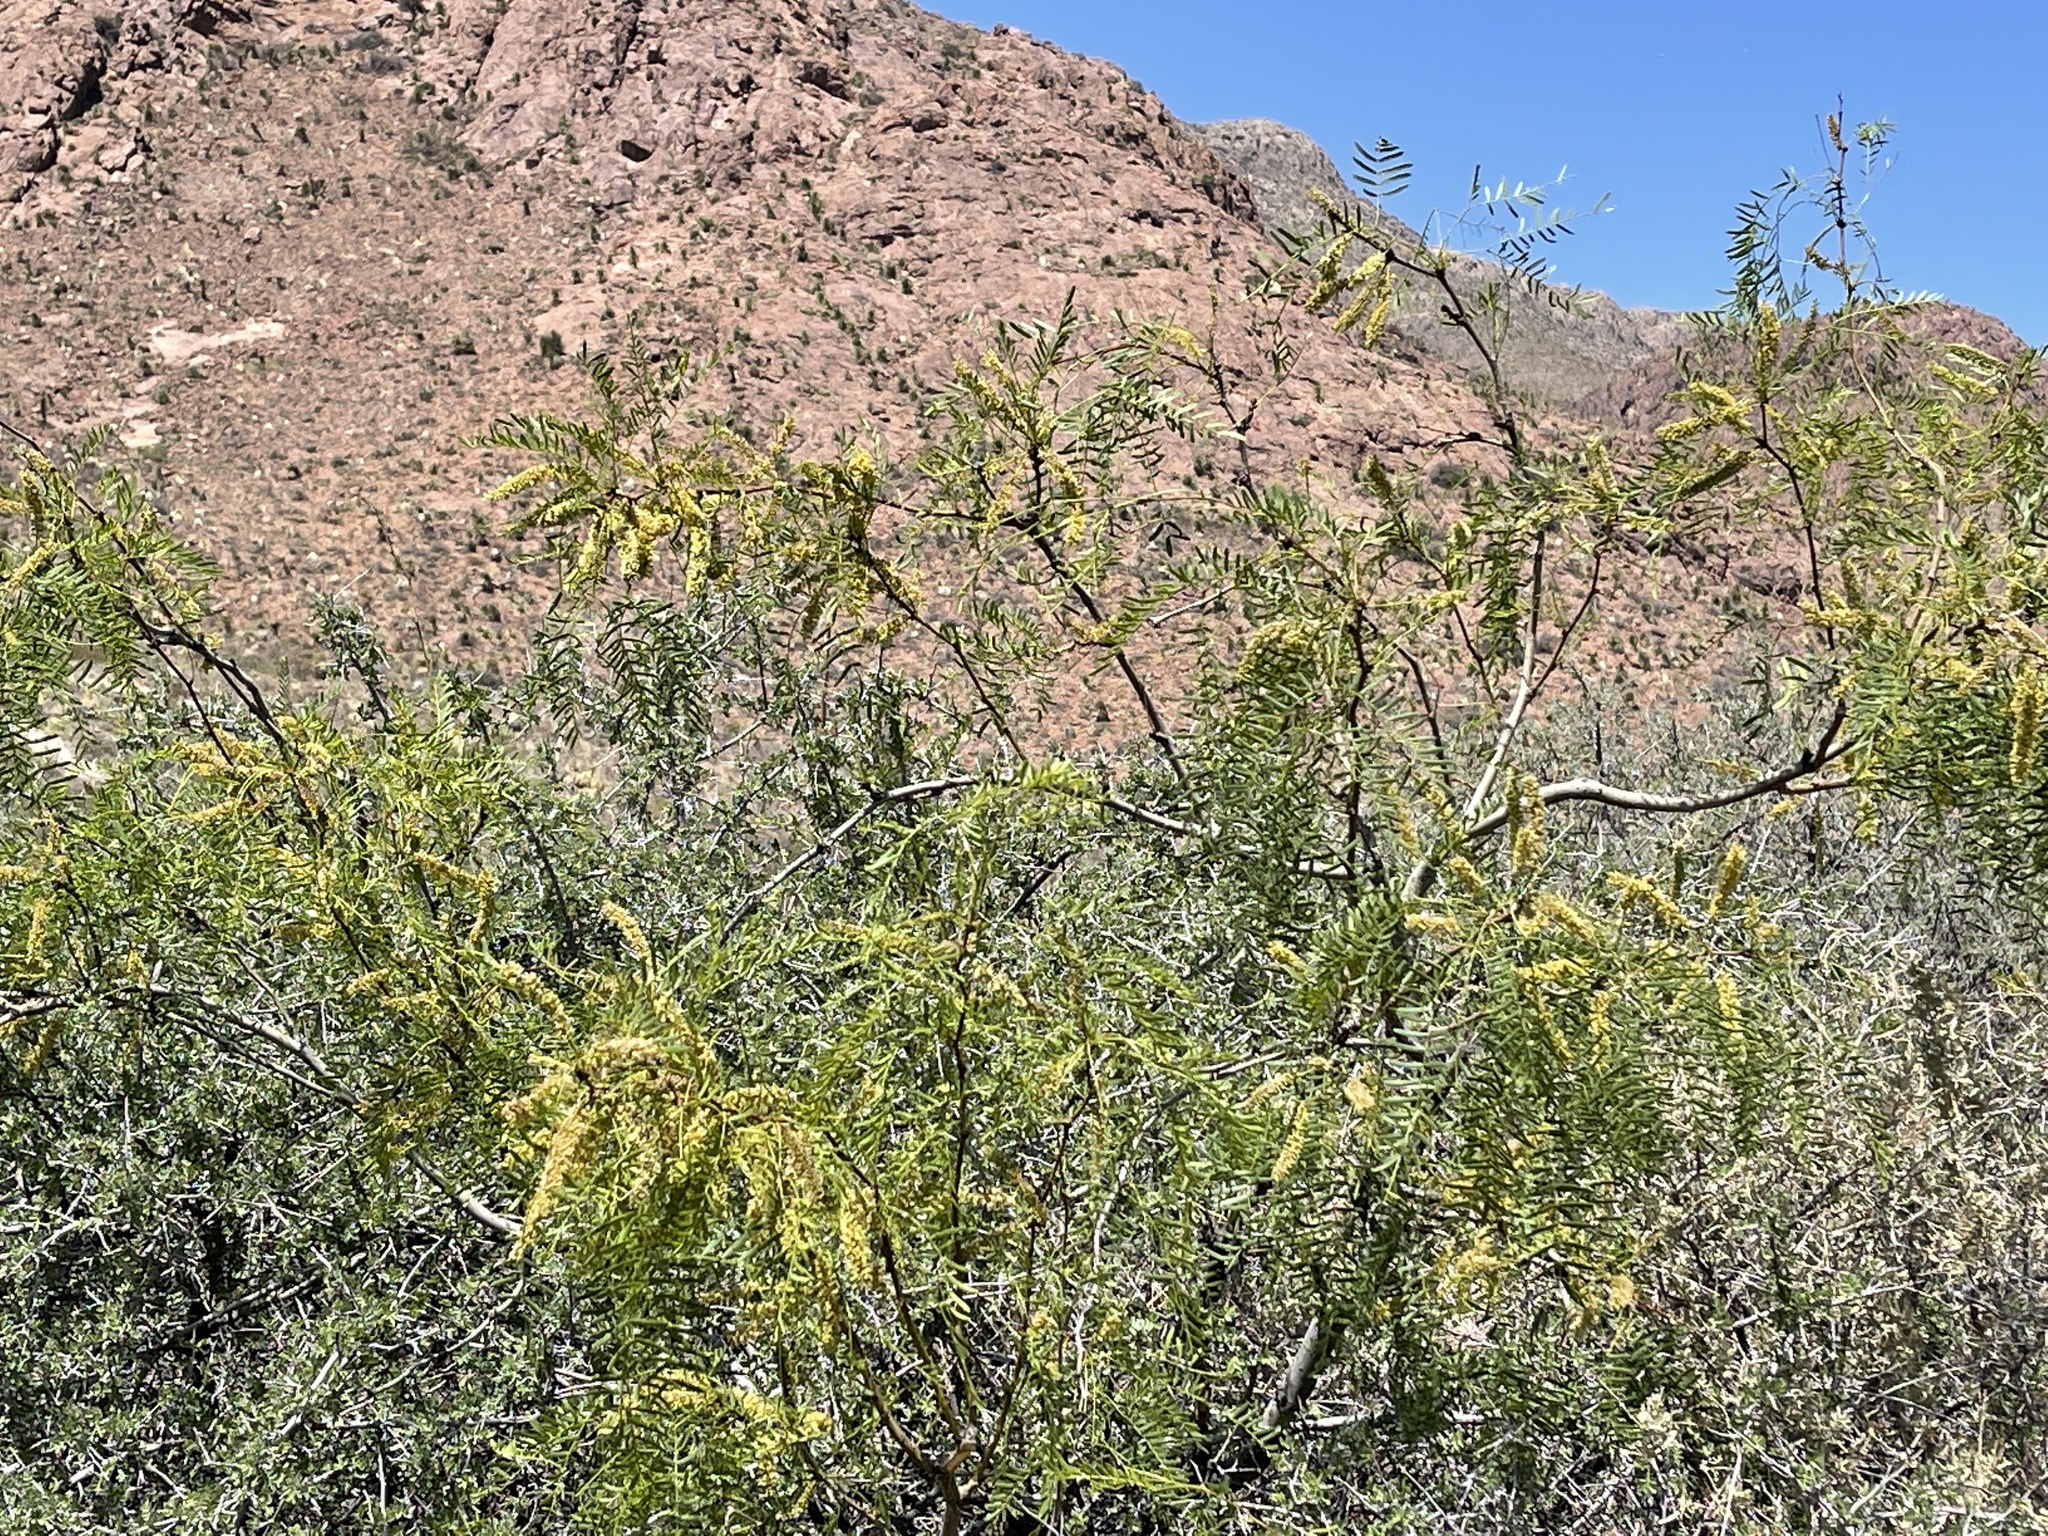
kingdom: Plantae
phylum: Tracheophyta
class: Magnoliopsida
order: Fabales
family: Fabaceae
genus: Prosopis
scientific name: Prosopis glandulosa
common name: Honey mesquite
